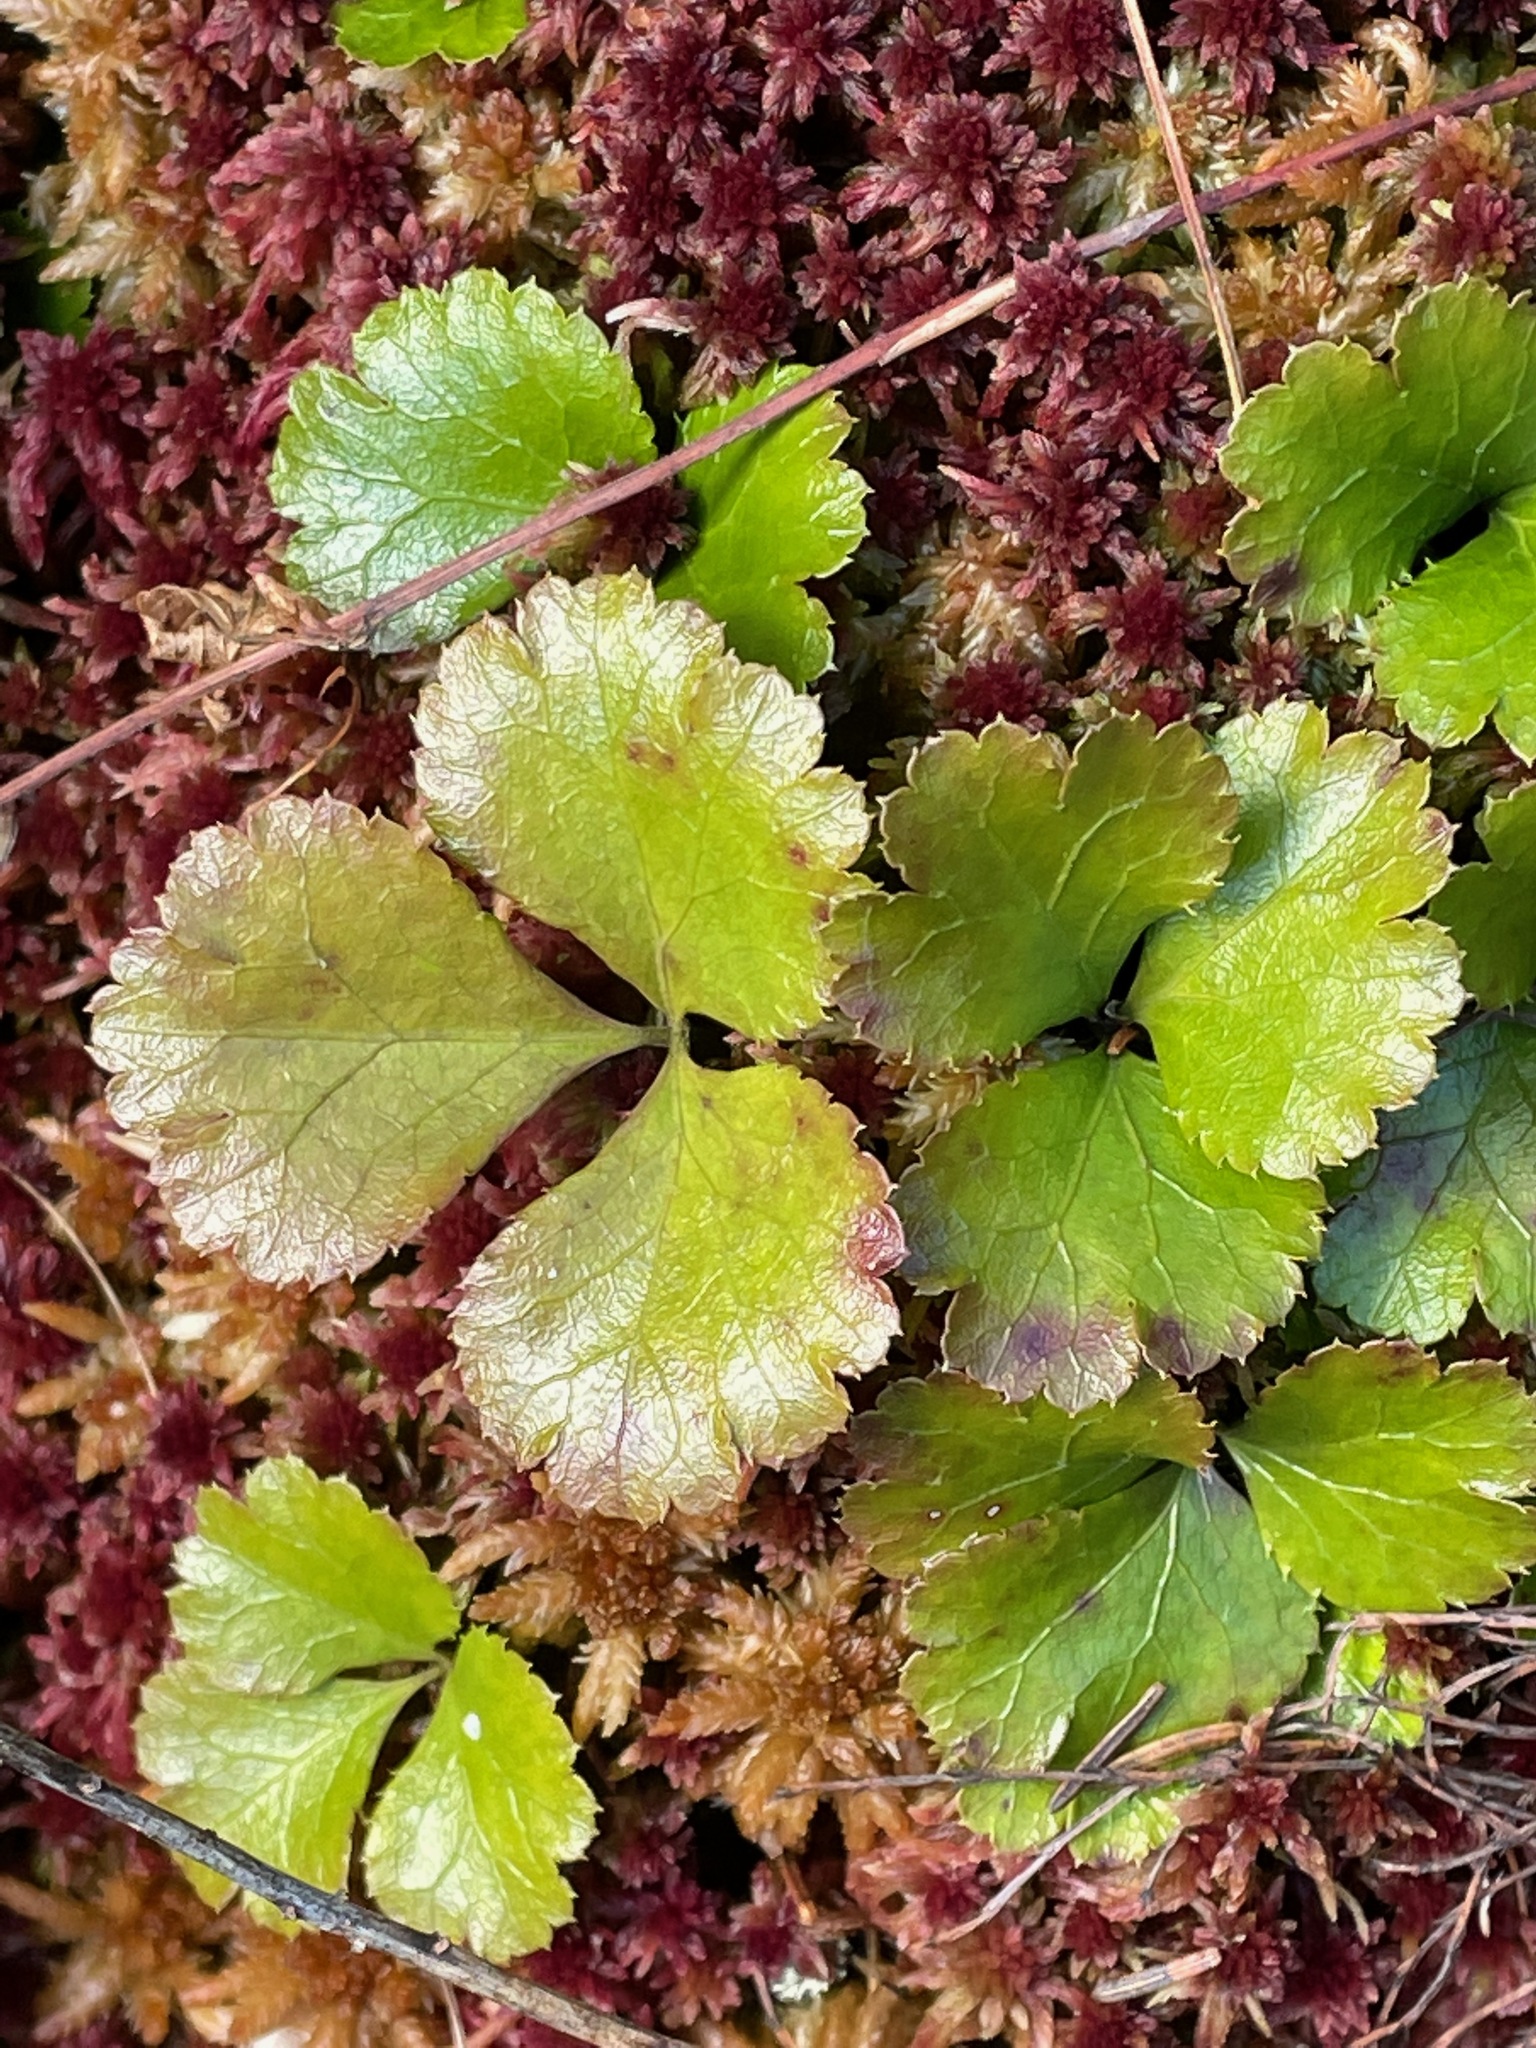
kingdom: Plantae
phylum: Tracheophyta
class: Magnoliopsida
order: Ranunculales
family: Ranunculaceae
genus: Coptis
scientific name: Coptis trifolia
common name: Canker-root
